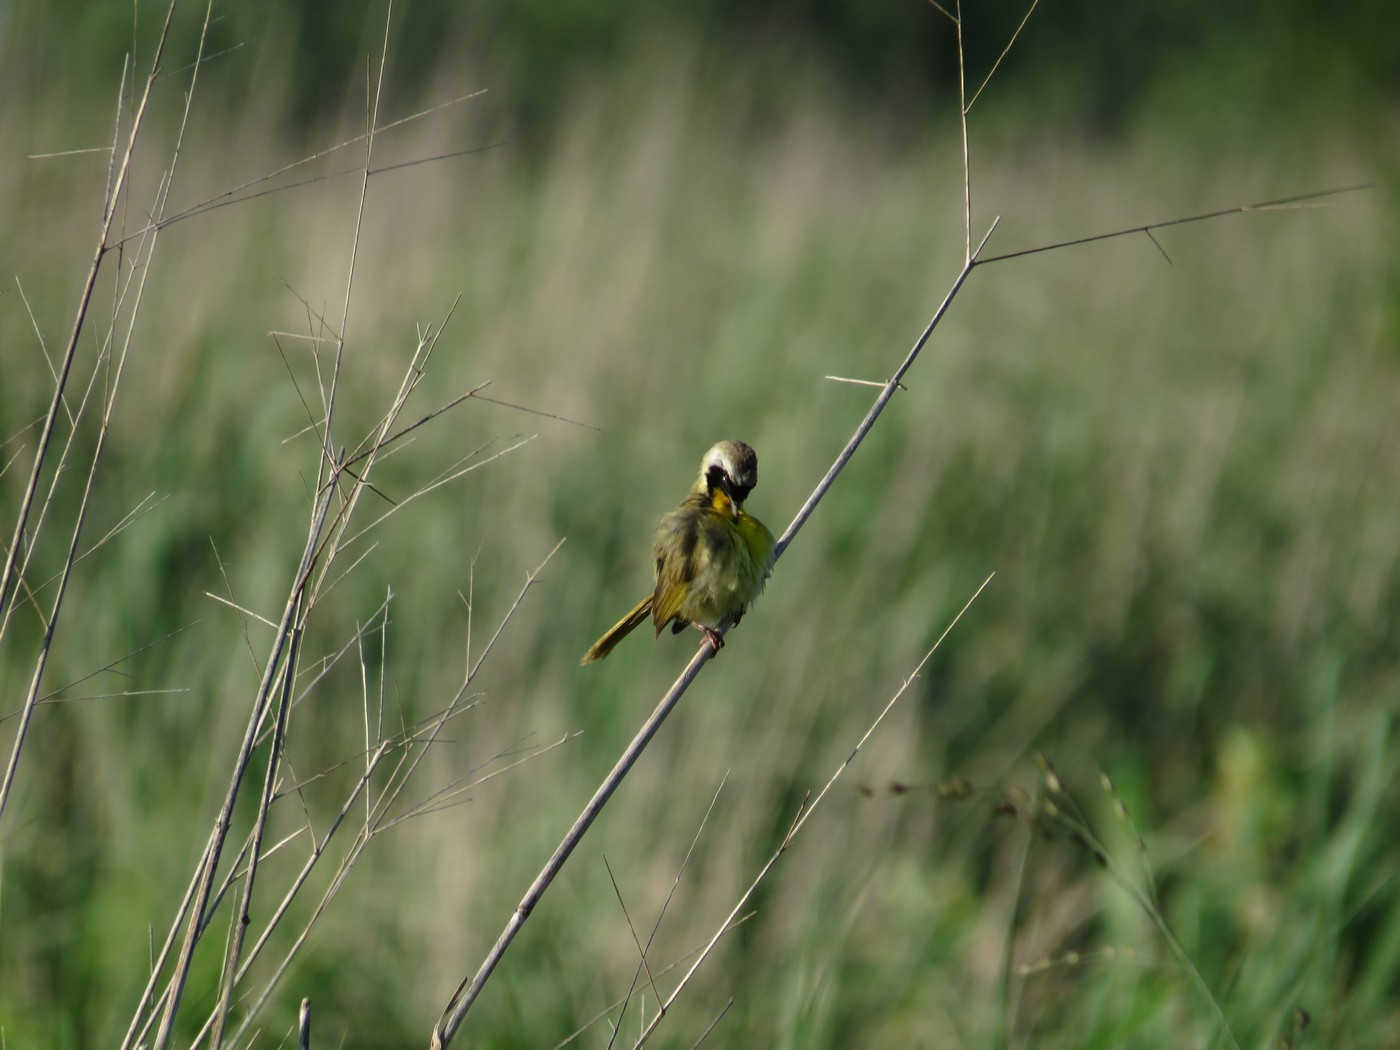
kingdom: Animalia
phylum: Chordata
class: Aves
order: Passeriformes
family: Parulidae
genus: Geothlypis
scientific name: Geothlypis trichas
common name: Common yellowthroat
